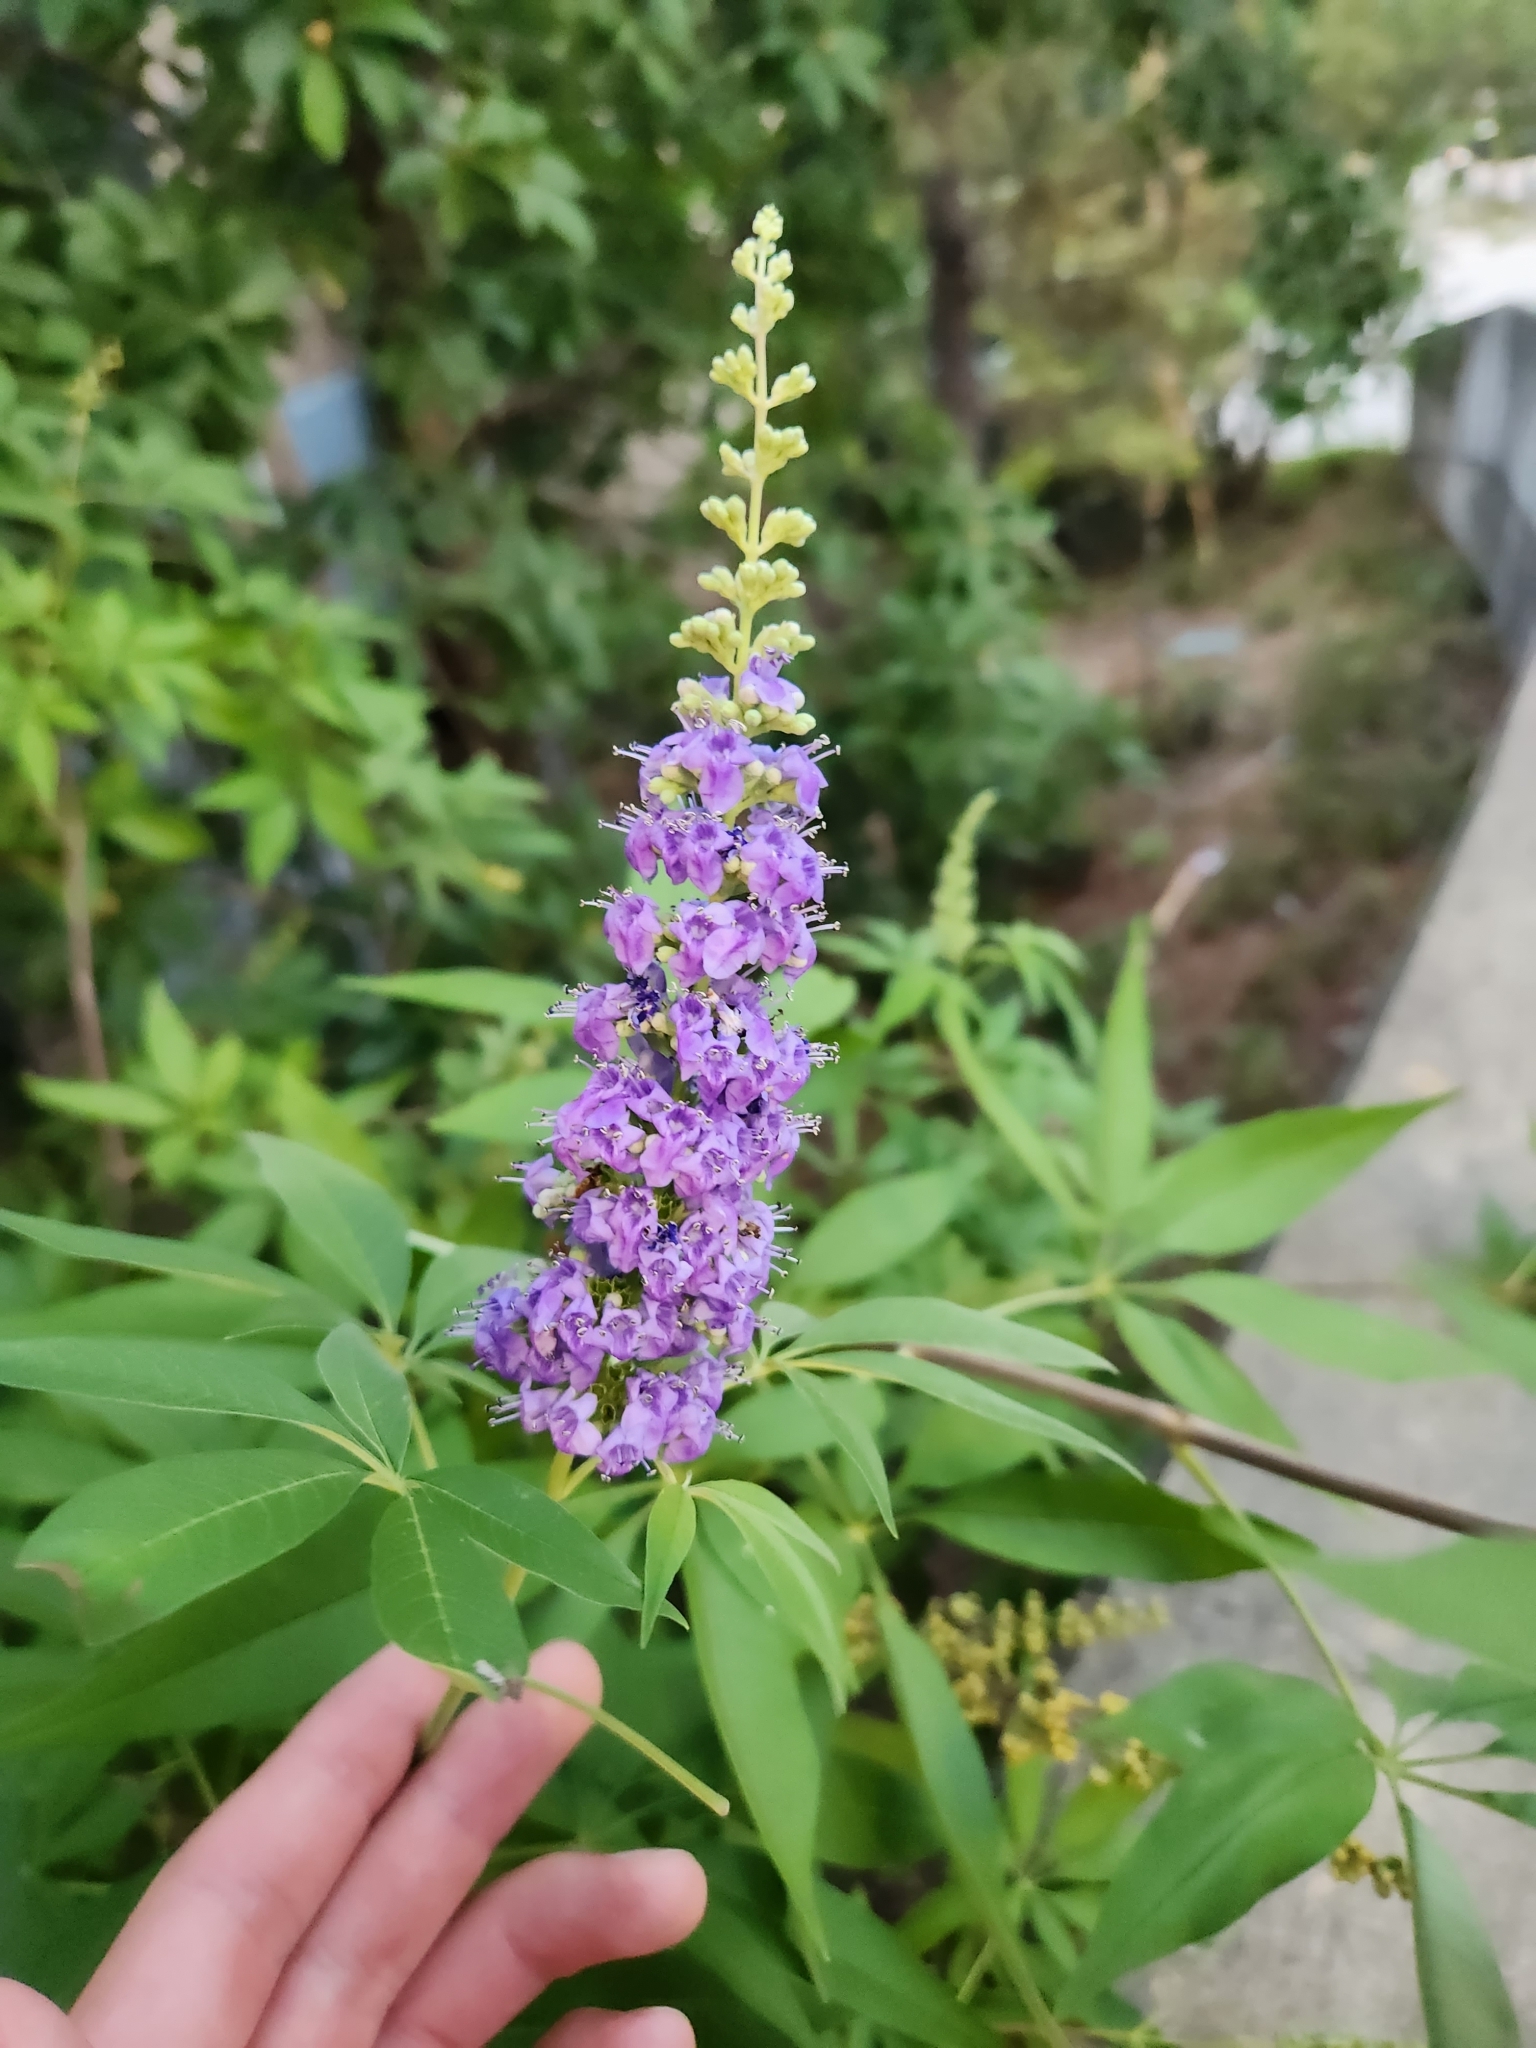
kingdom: Plantae
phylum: Tracheophyta
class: Magnoliopsida
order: Lamiales
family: Lamiaceae
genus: Vitex
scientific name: Vitex agnus-castus
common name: Chasteberry
